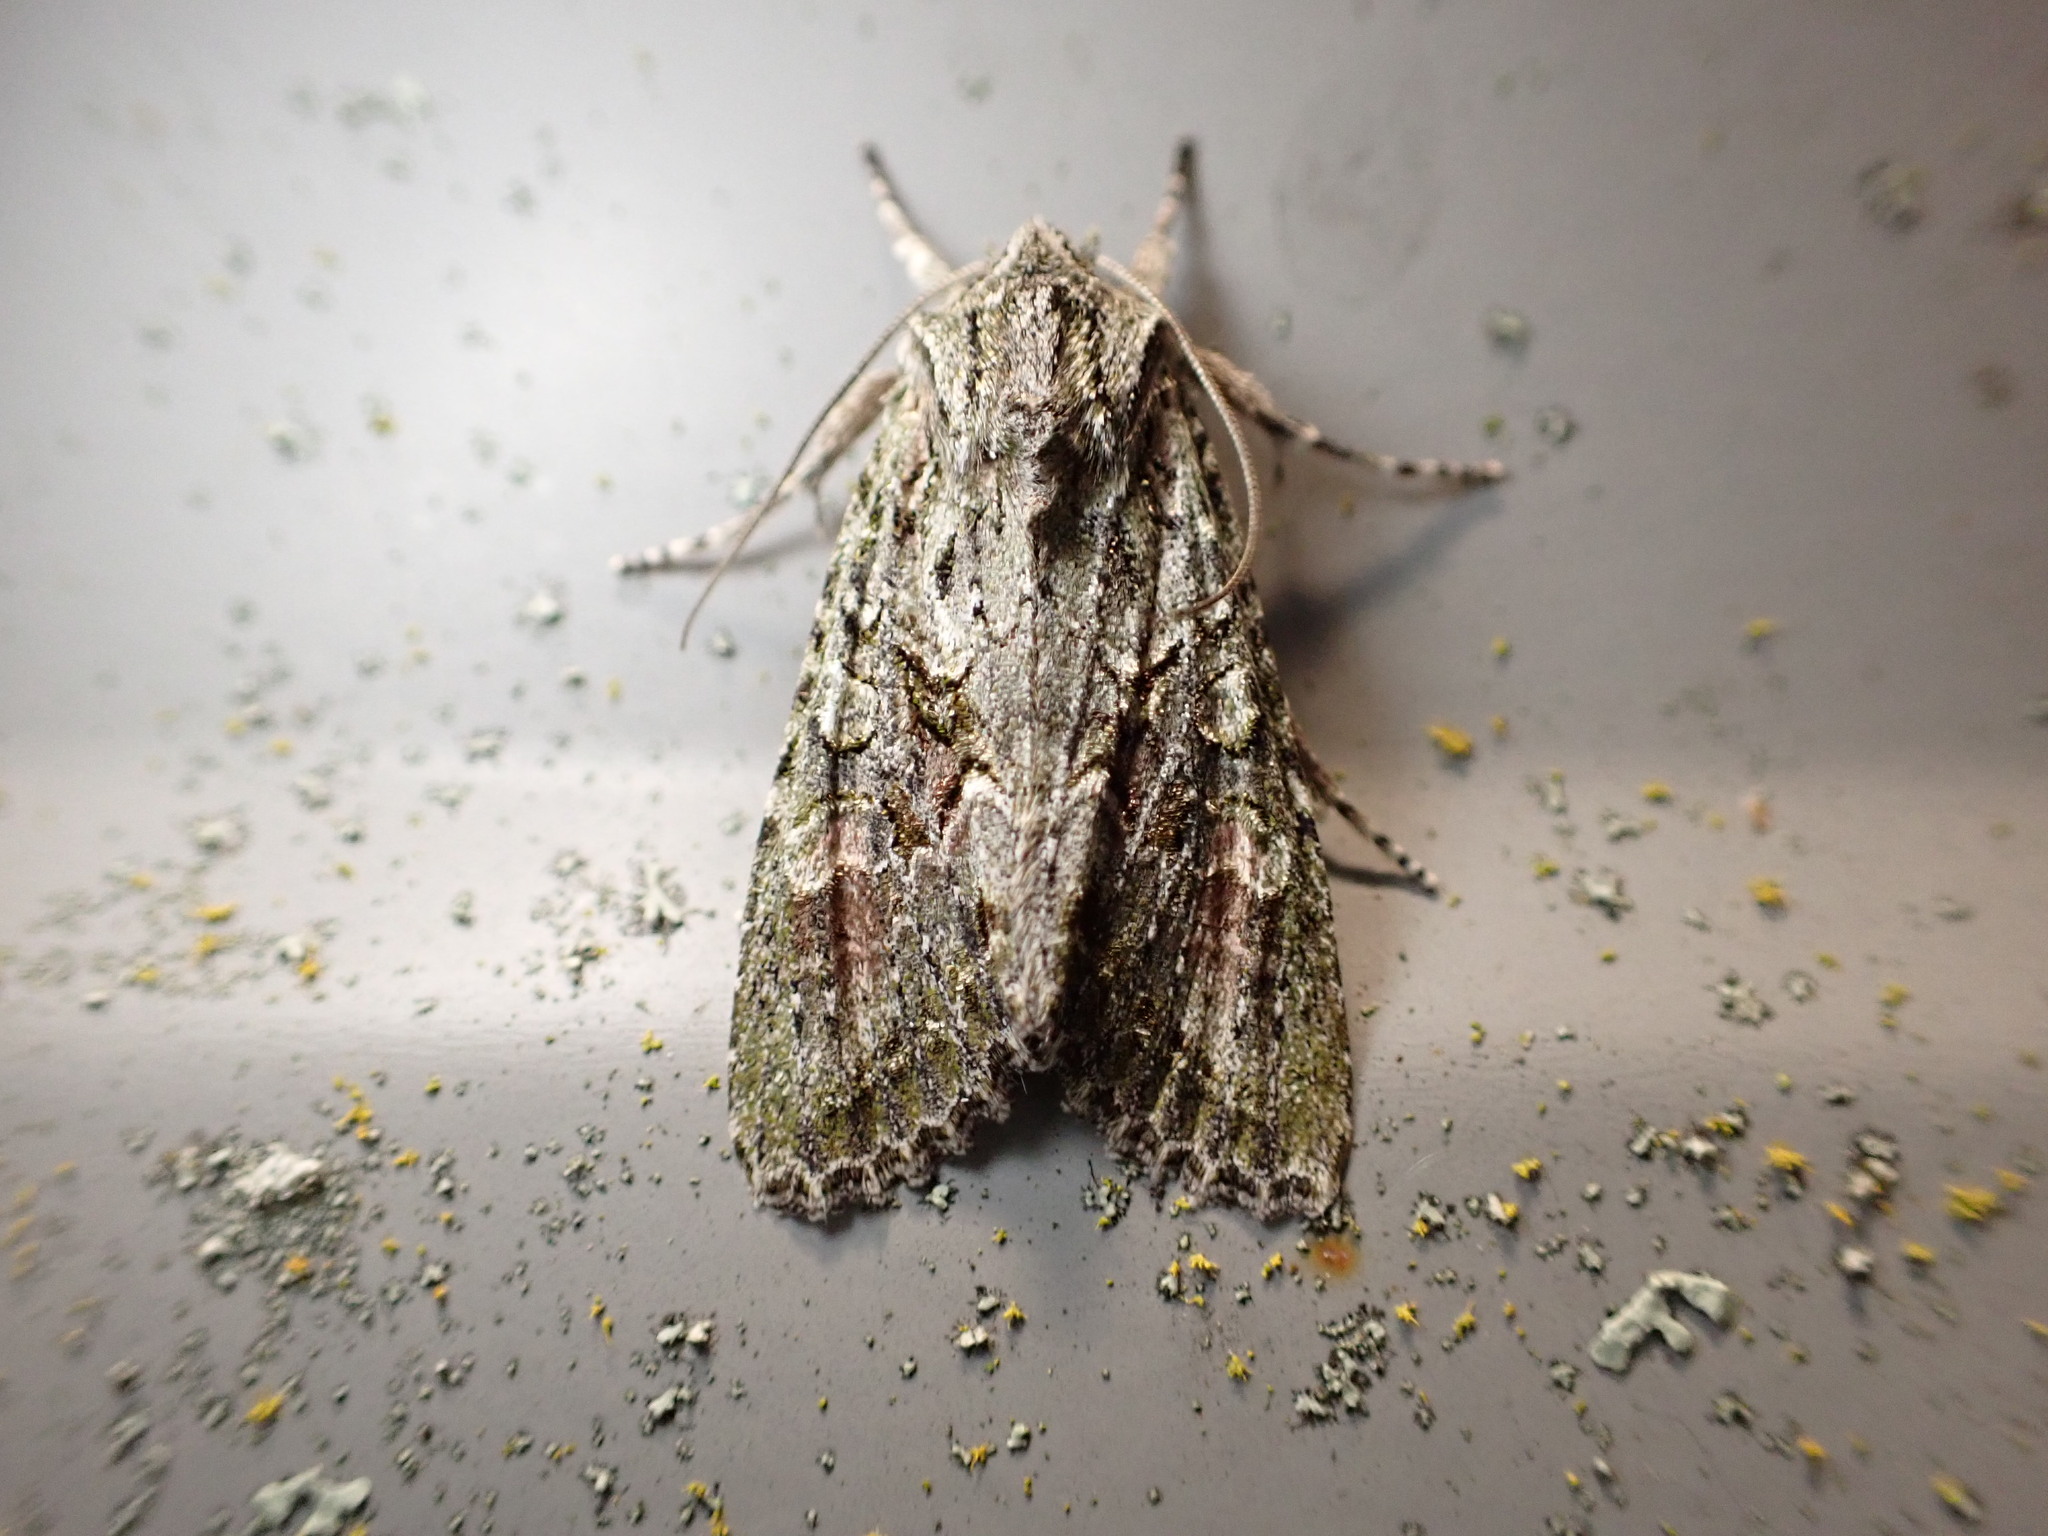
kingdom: Animalia
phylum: Arthropoda
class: Insecta
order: Lepidoptera
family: Noctuidae
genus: Ichneutica
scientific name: Ichneutica mutans
